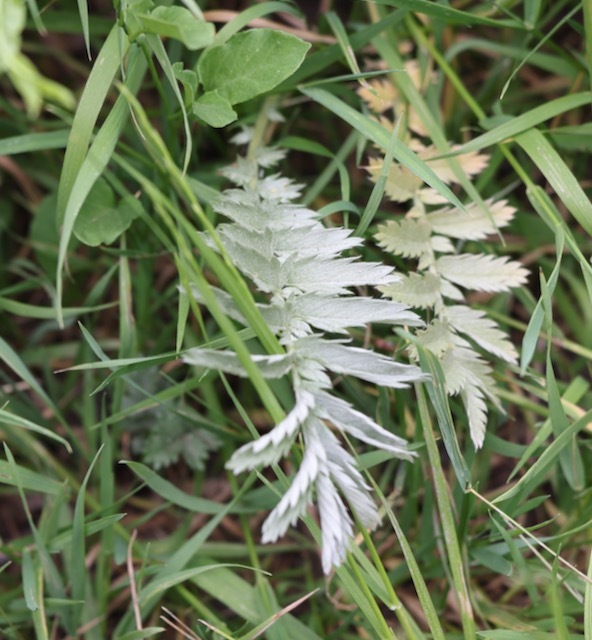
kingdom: Plantae
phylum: Tracheophyta
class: Magnoliopsida
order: Rosales
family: Rosaceae
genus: Argentina
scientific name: Argentina anserina
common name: Common silverweed
